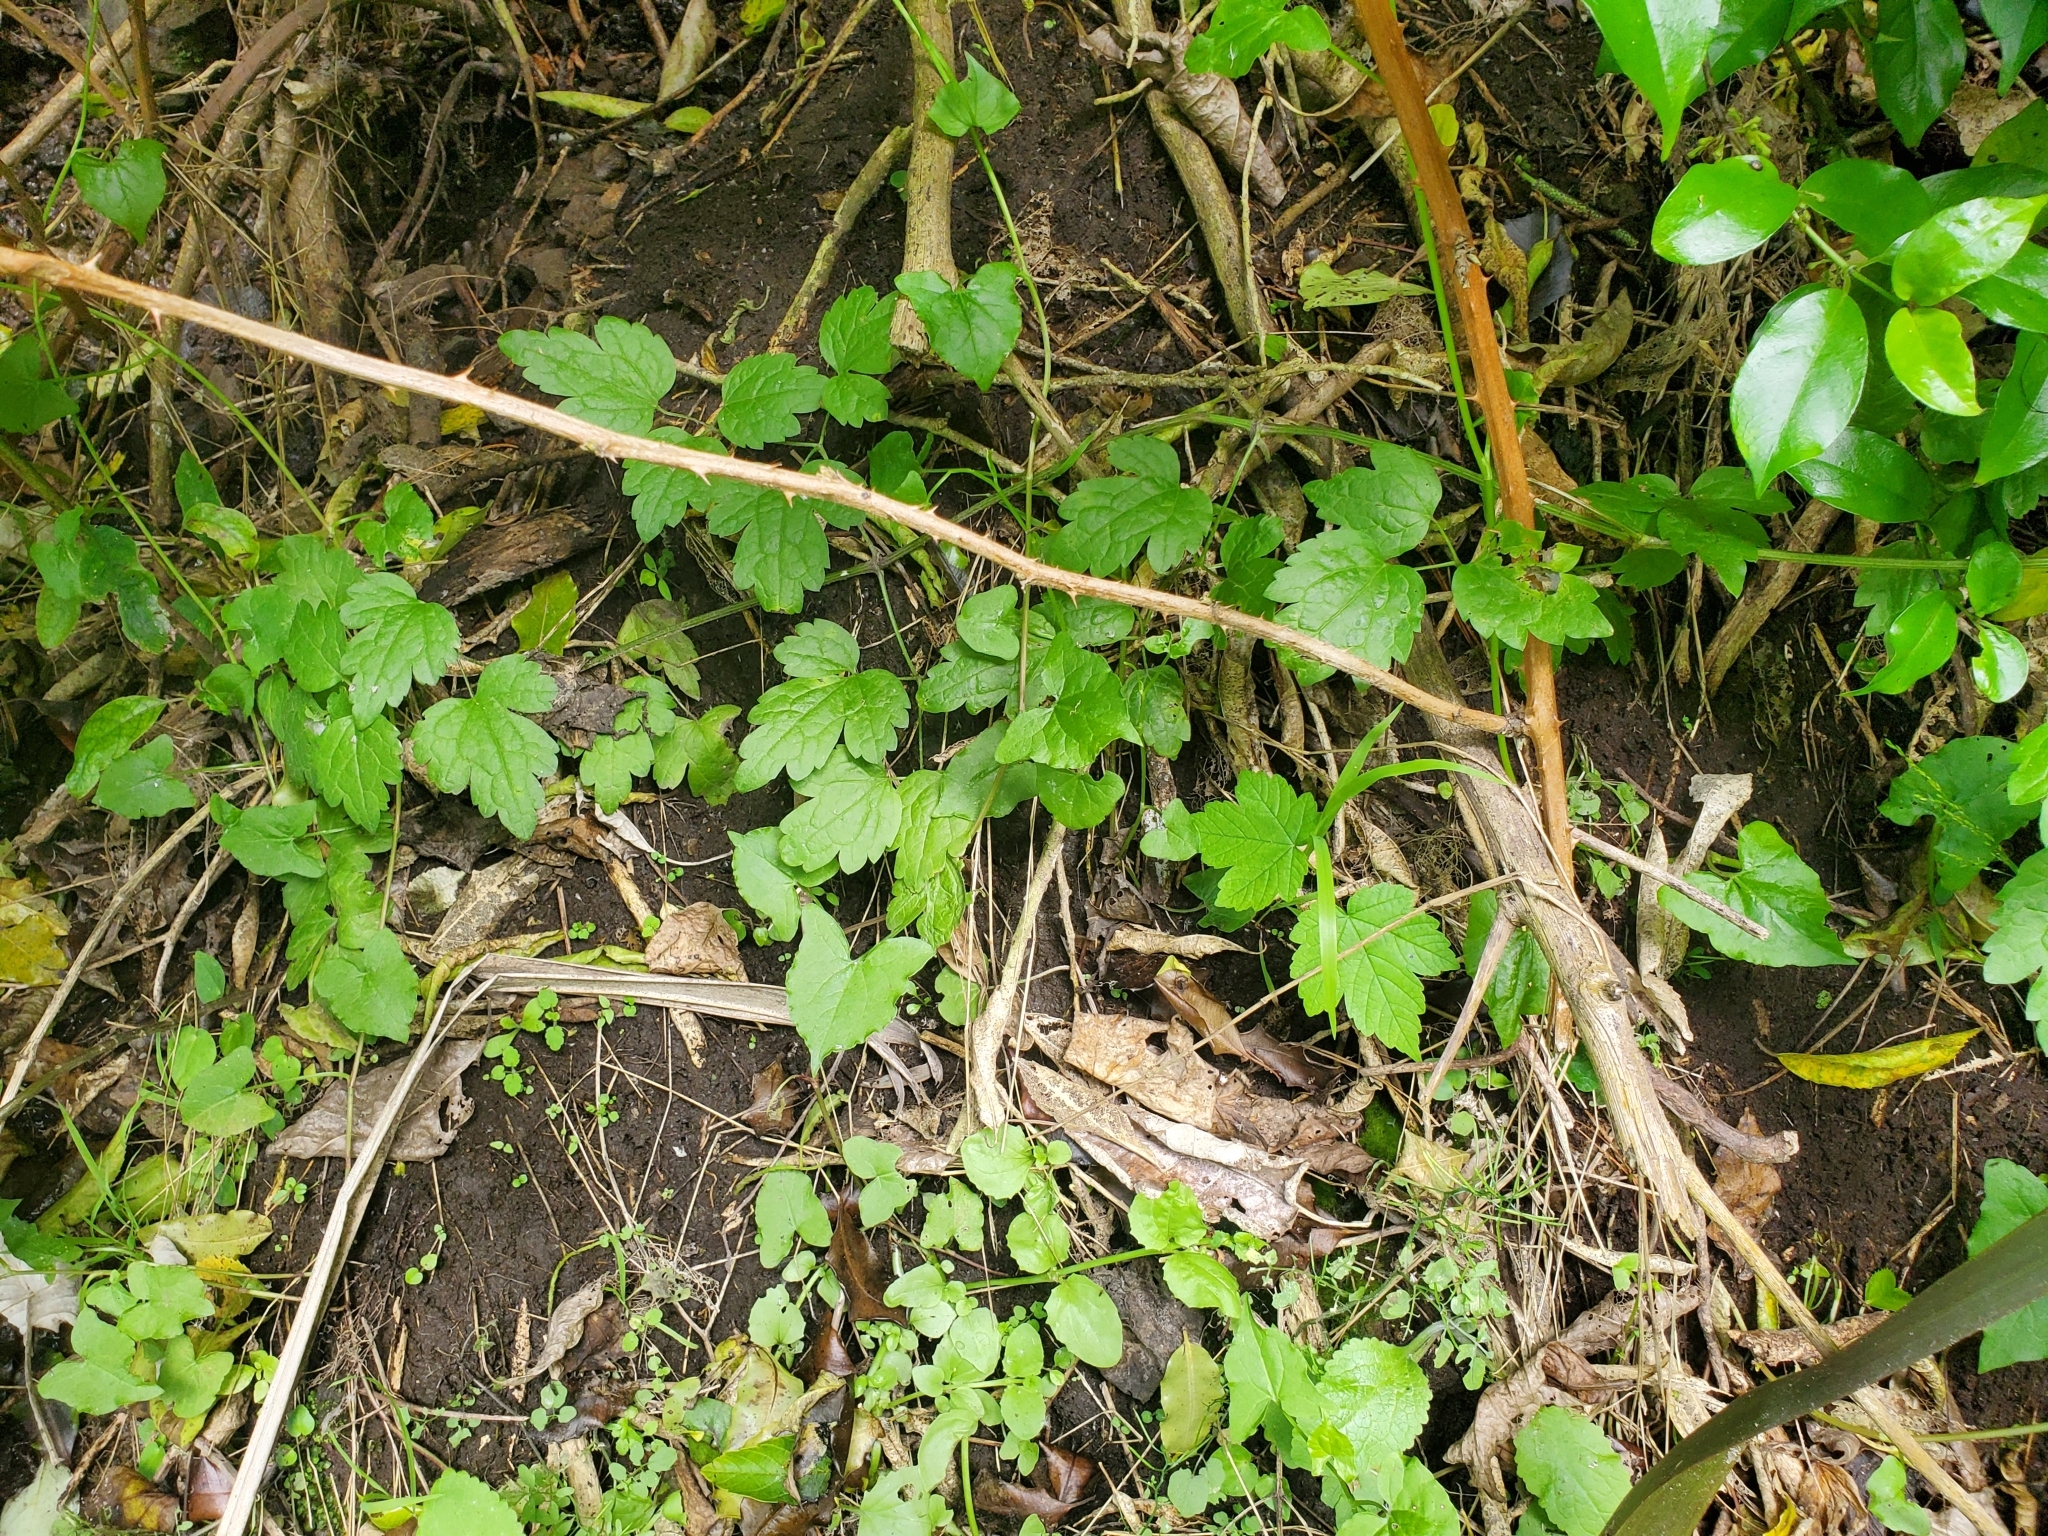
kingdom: Plantae
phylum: Tracheophyta
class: Magnoliopsida
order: Ranunculales
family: Ranunculaceae
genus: Clematis
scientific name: Clematis vitalba
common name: Evergreen clematis
